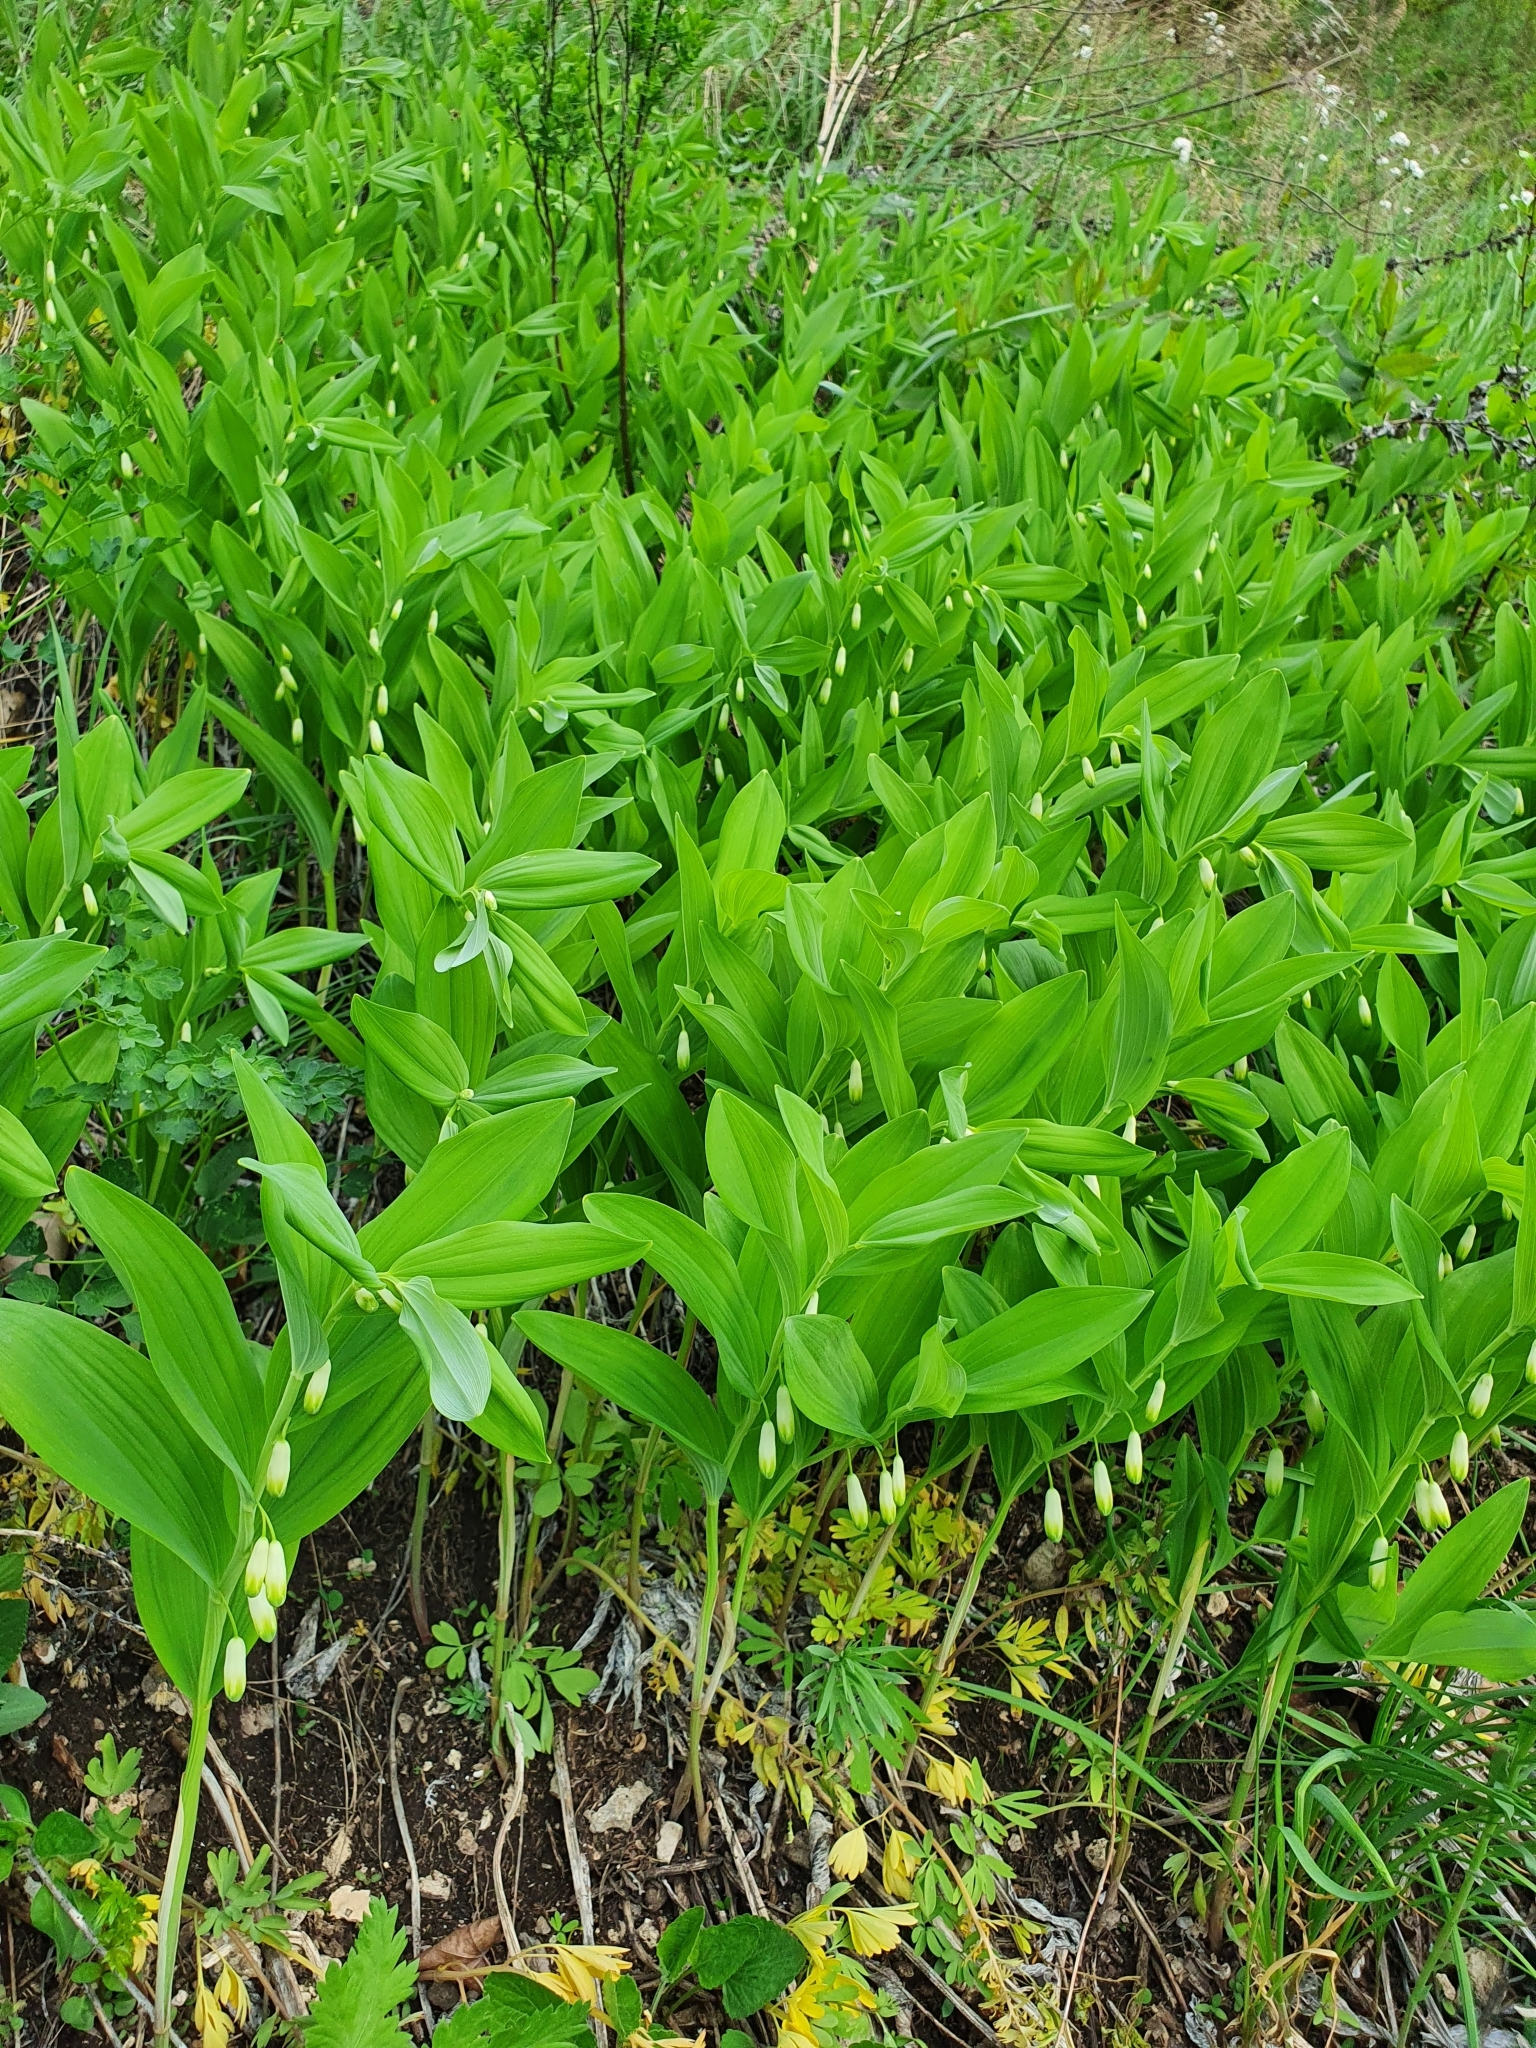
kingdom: Plantae
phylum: Tracheophyta
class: Liliopsida
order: Asparagales
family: Asparagaceae
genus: Polygonatum
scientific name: Polygonatum odoratum
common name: Angular solomon's-seal
